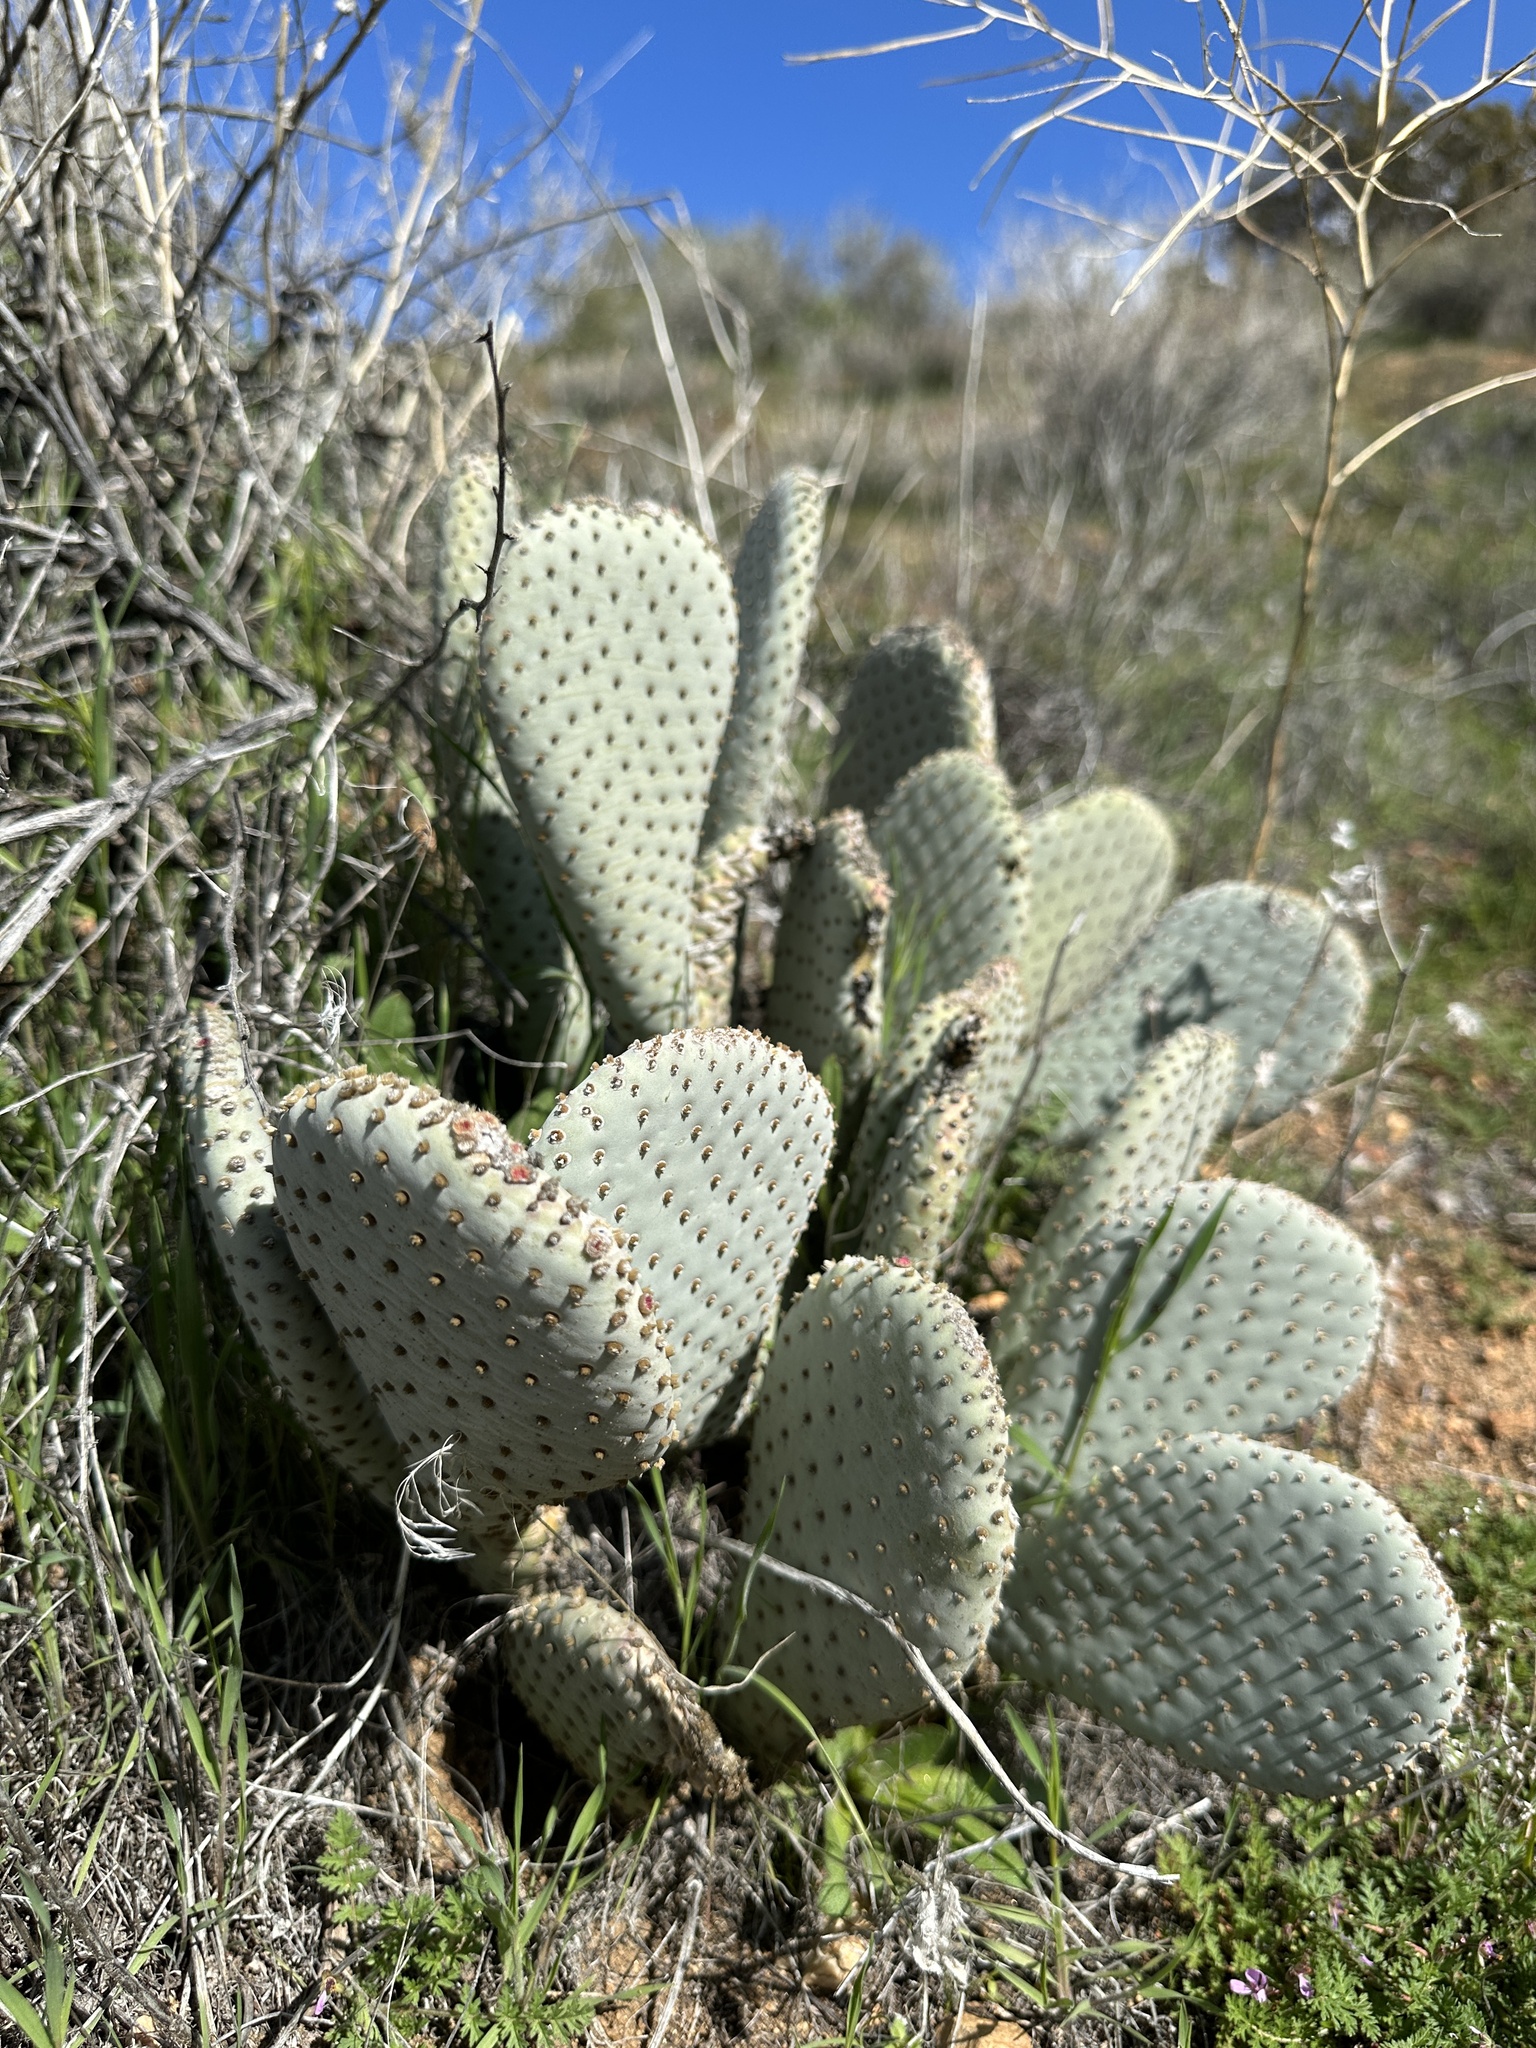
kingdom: Plantae
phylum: Tracheophyta
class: Magnoliopsida
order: Caryophyllales
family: Cactaceae
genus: Opuntia
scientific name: Opuntia basilaris
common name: Beavertail prickly-pear
